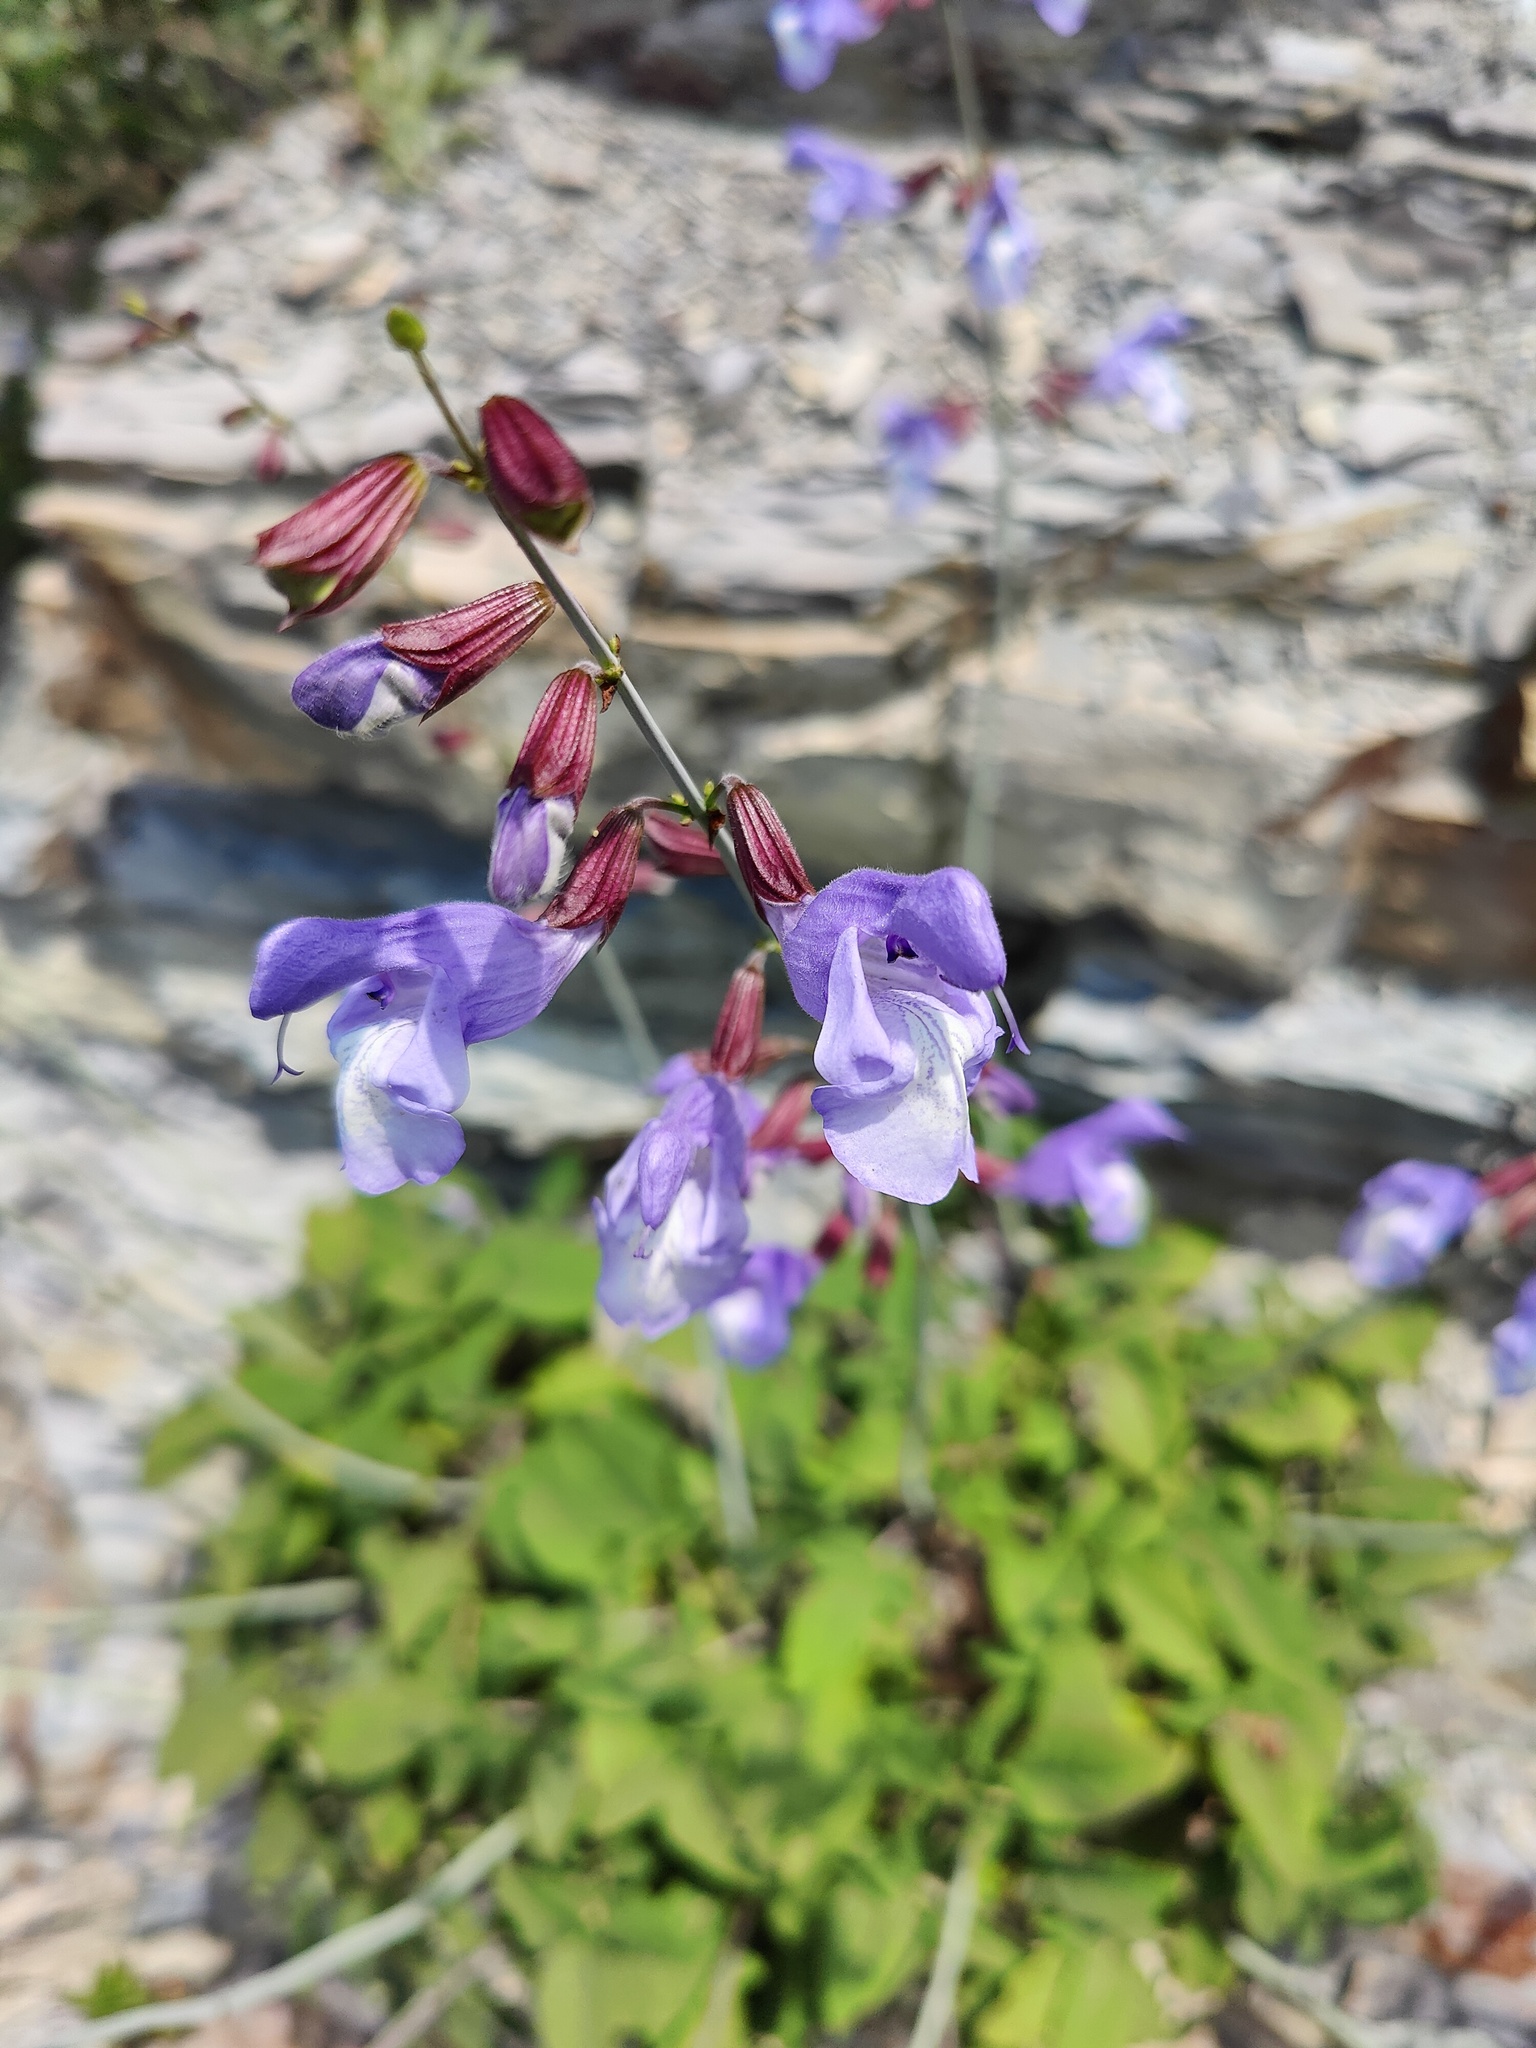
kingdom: Plantae
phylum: Tracheophyta
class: Magnoliopsida
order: Lamiales
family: Lamiaceae
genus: Salvia
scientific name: Salvia ringens
